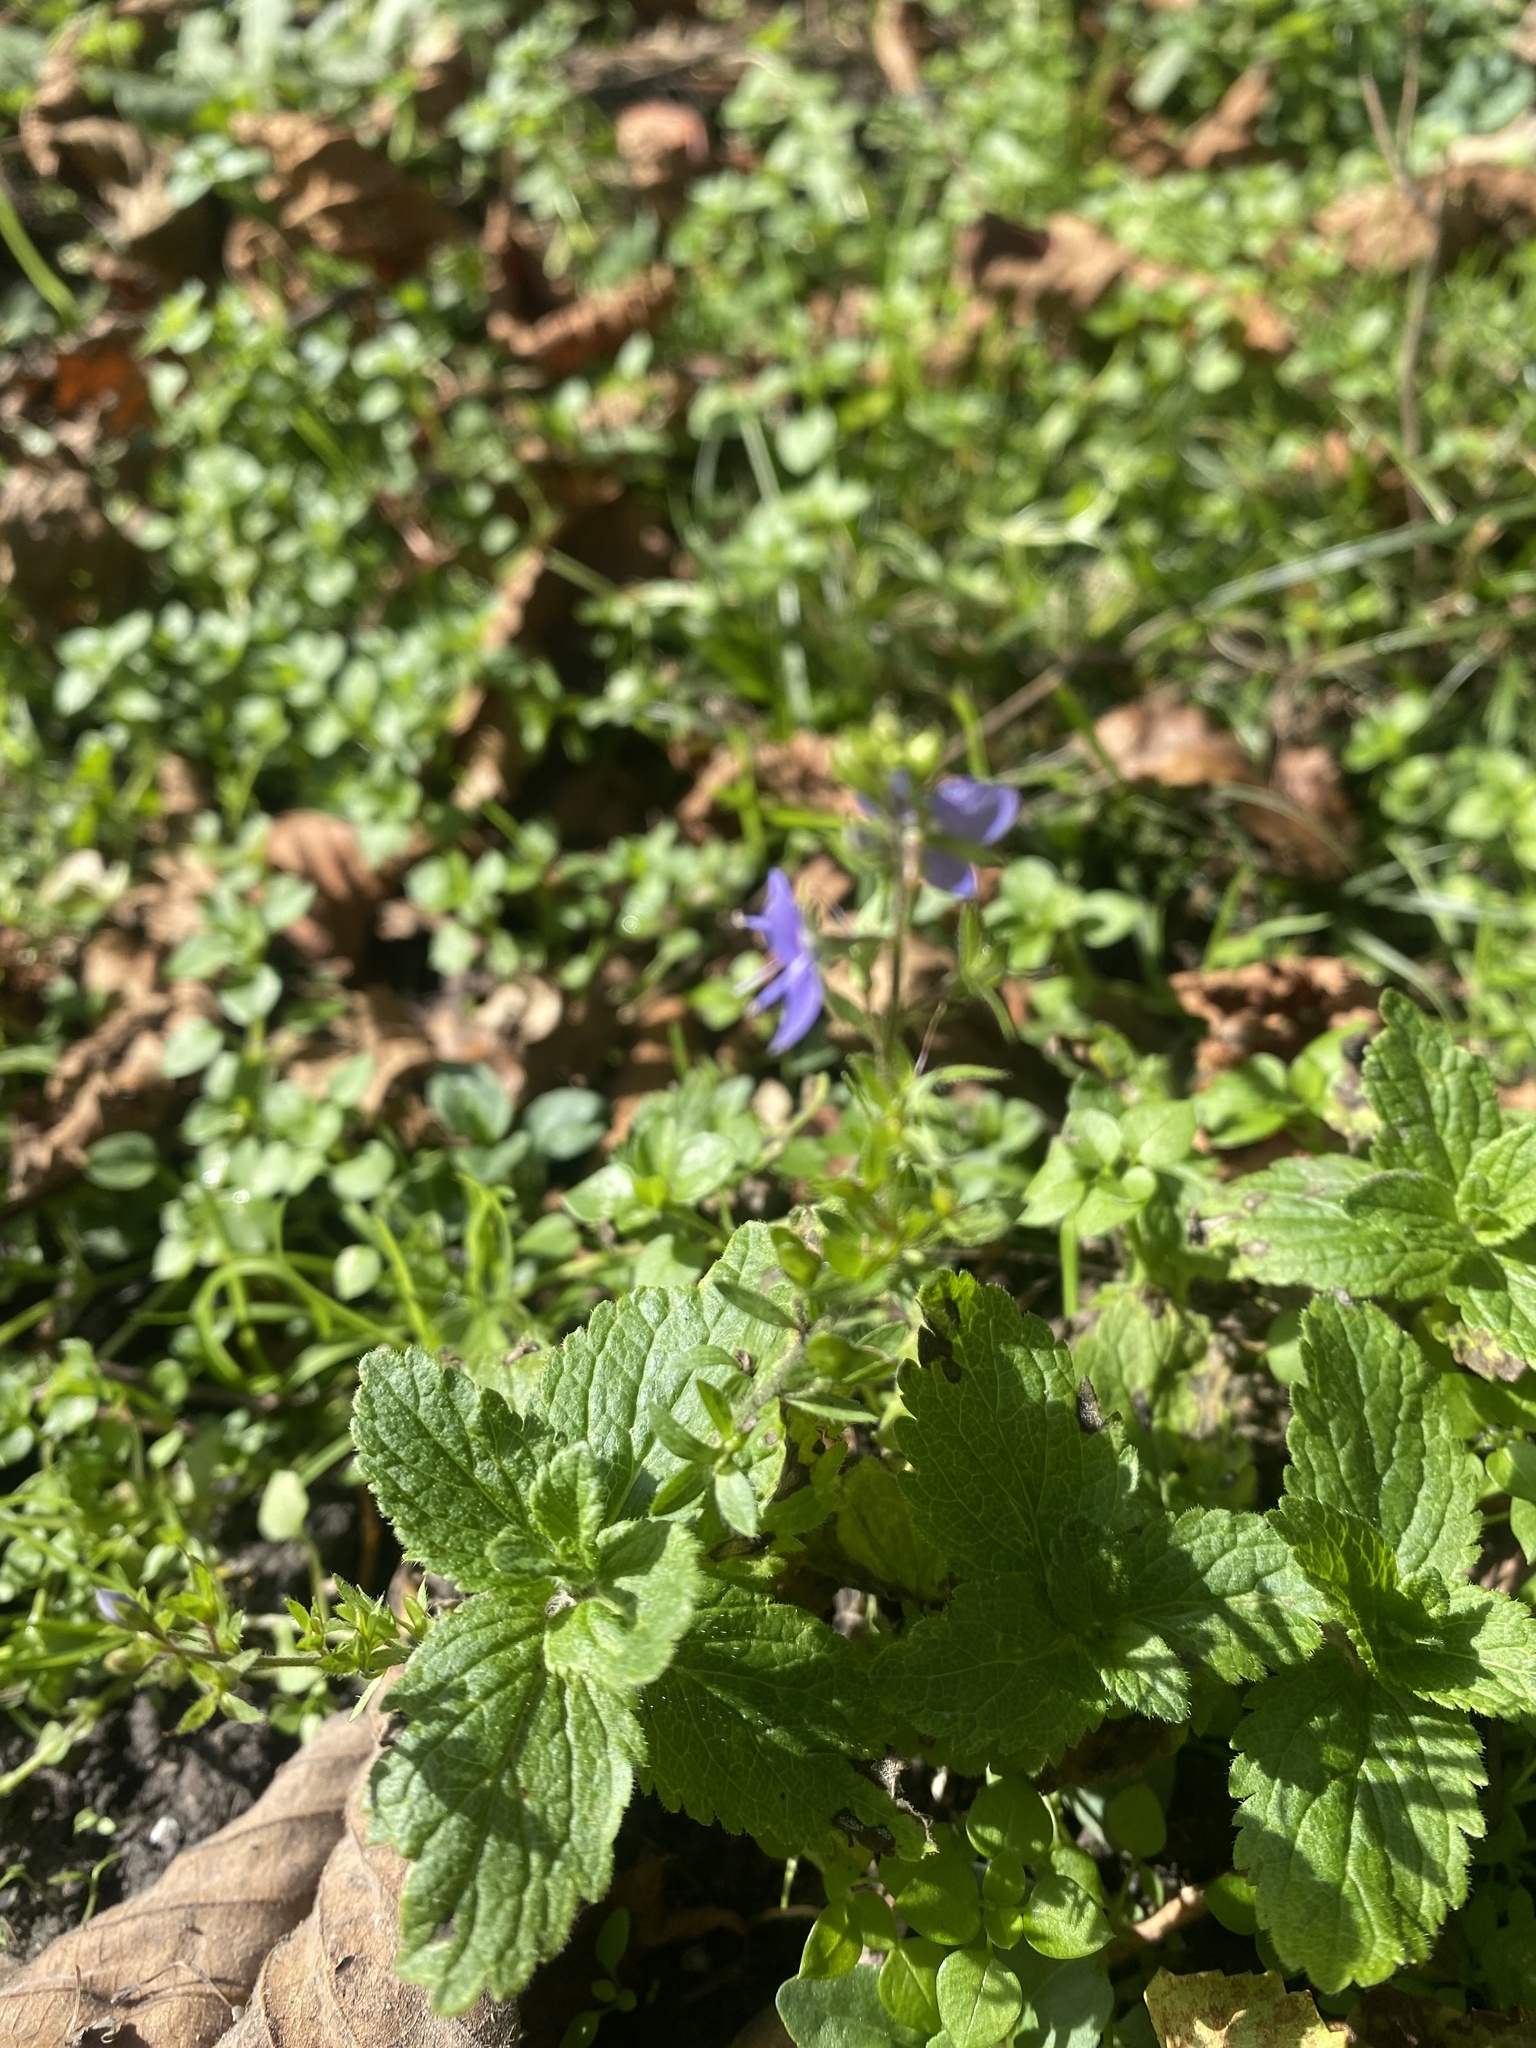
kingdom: Plantae
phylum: Tracheophyta
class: Magnoliopsida
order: Lamiales
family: Plantaginaceae
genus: Veronica
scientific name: Veronica chamaedrys
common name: Germander speedwell
